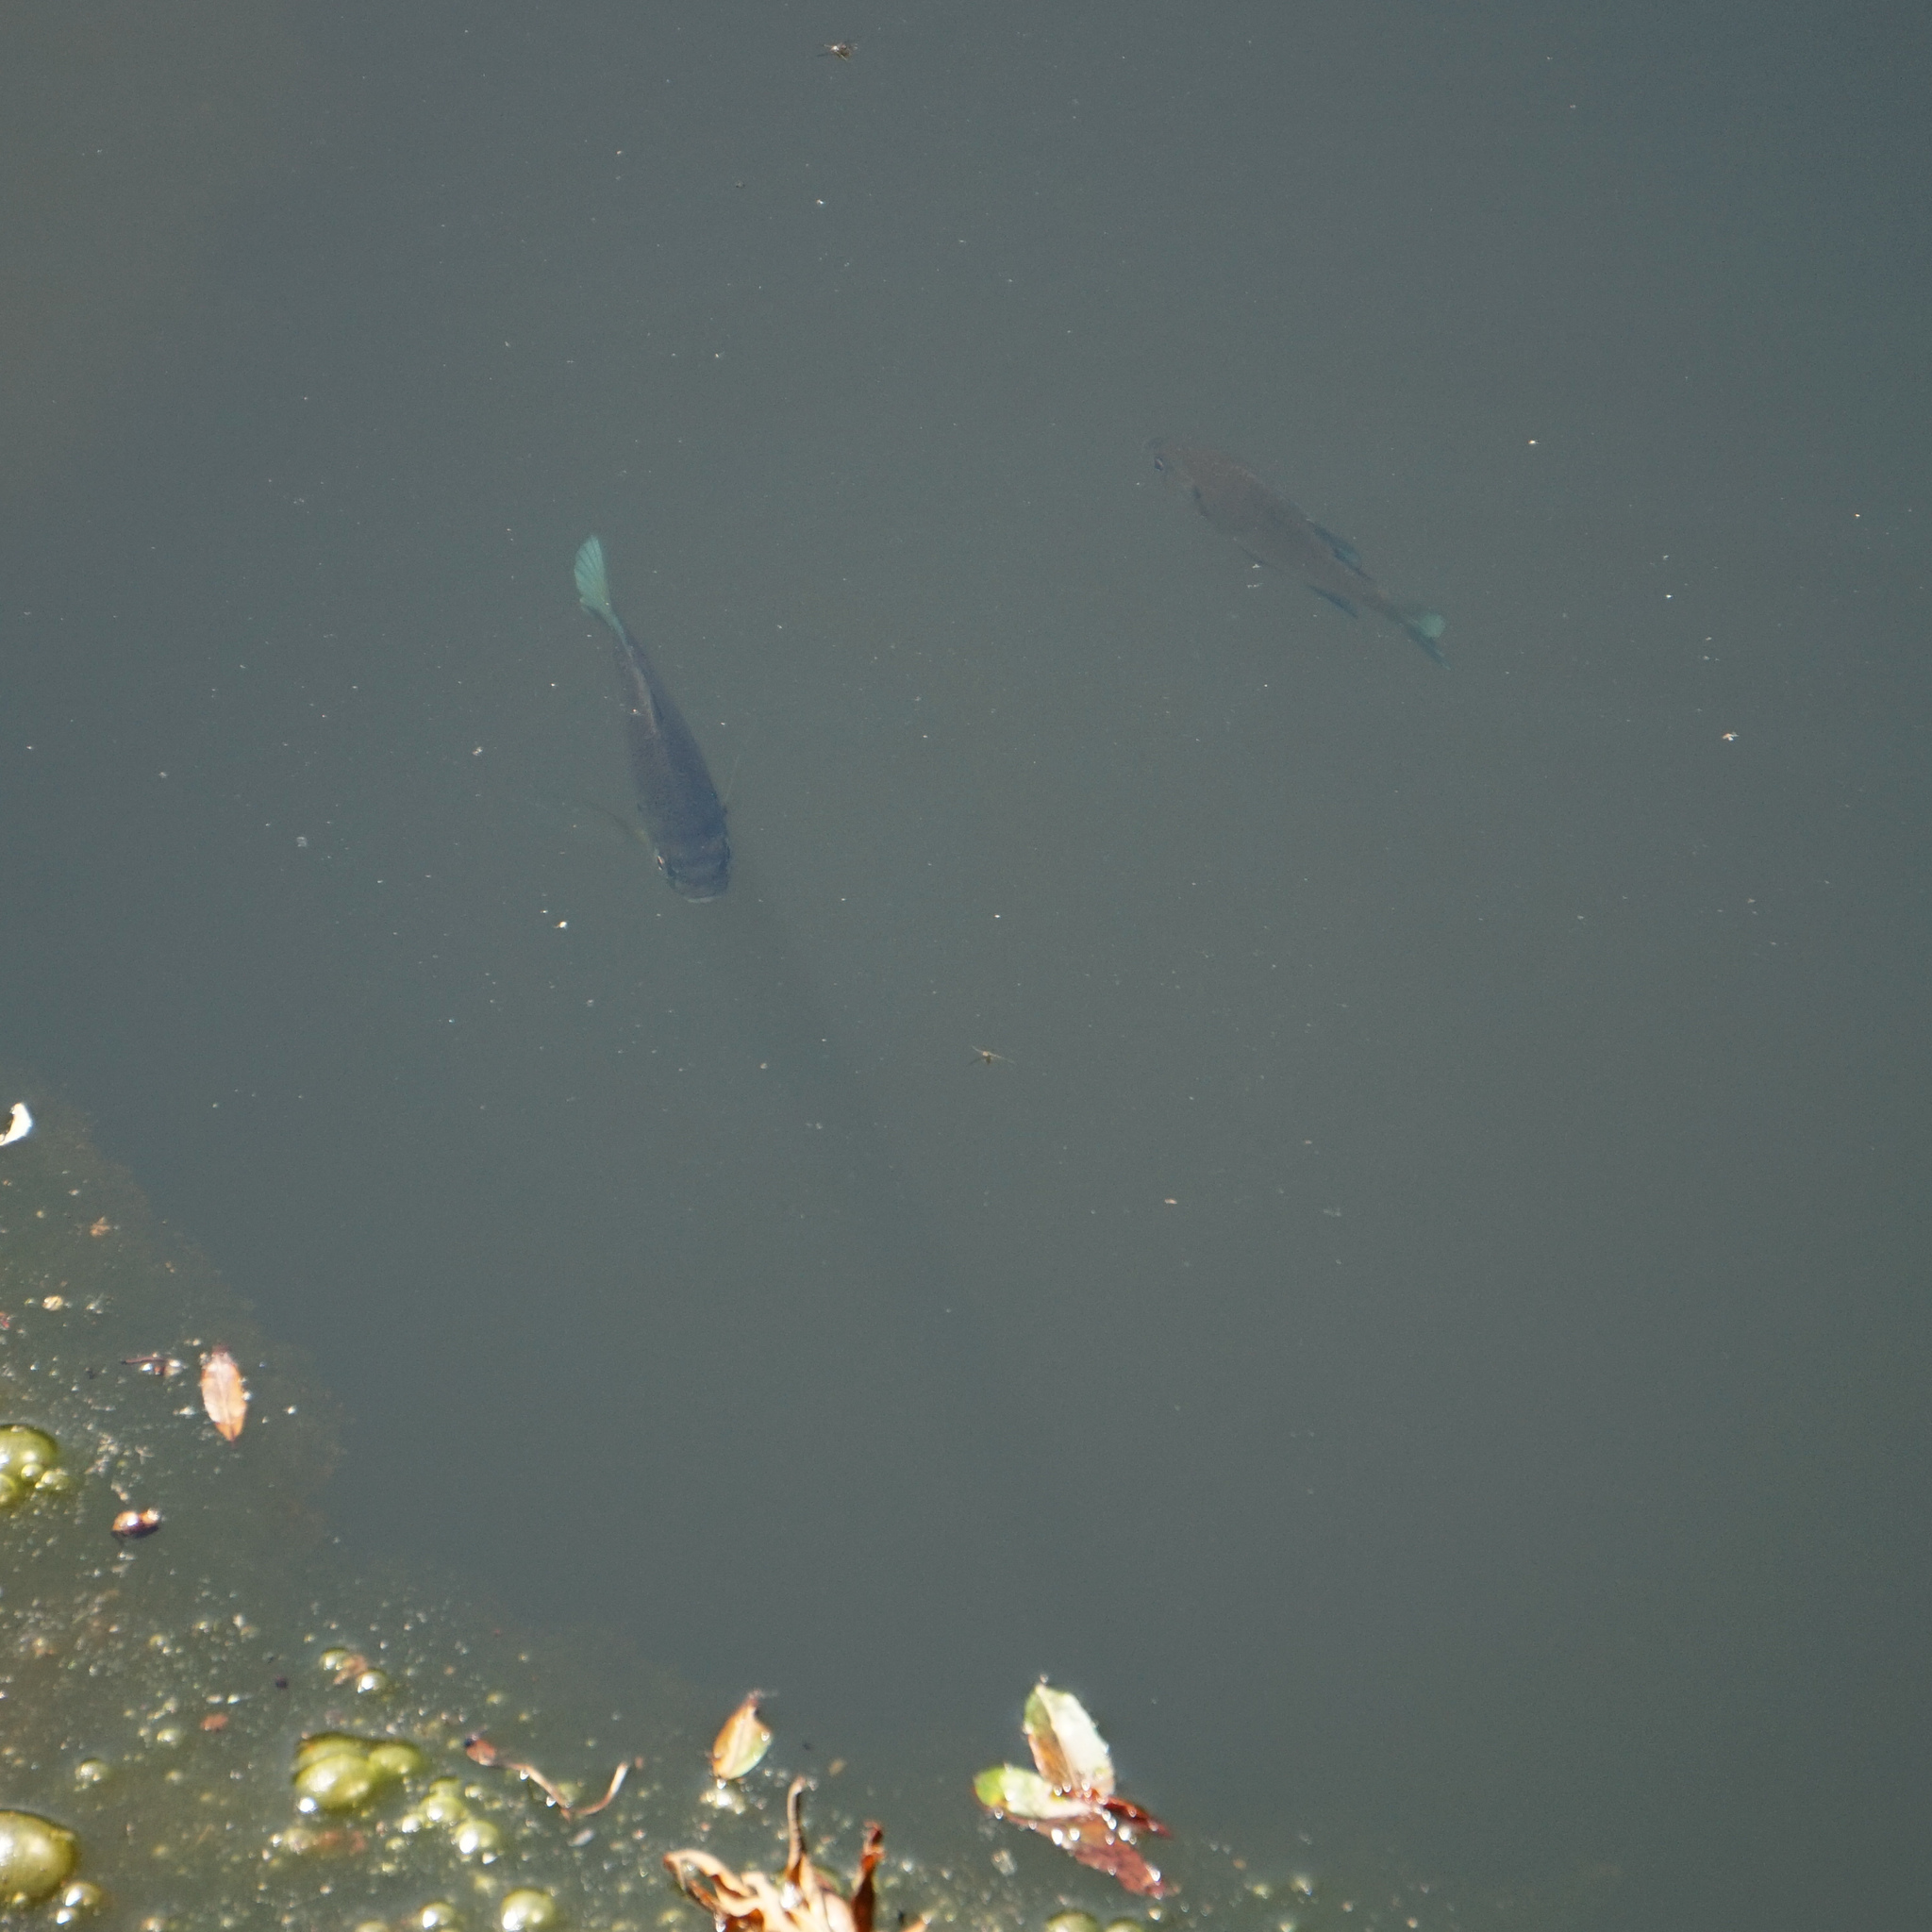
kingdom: Animalia
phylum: Chordata
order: Perciformes
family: Centrarchidae
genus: Lepomis
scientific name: Lepomis macrochirus
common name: Bluegill
